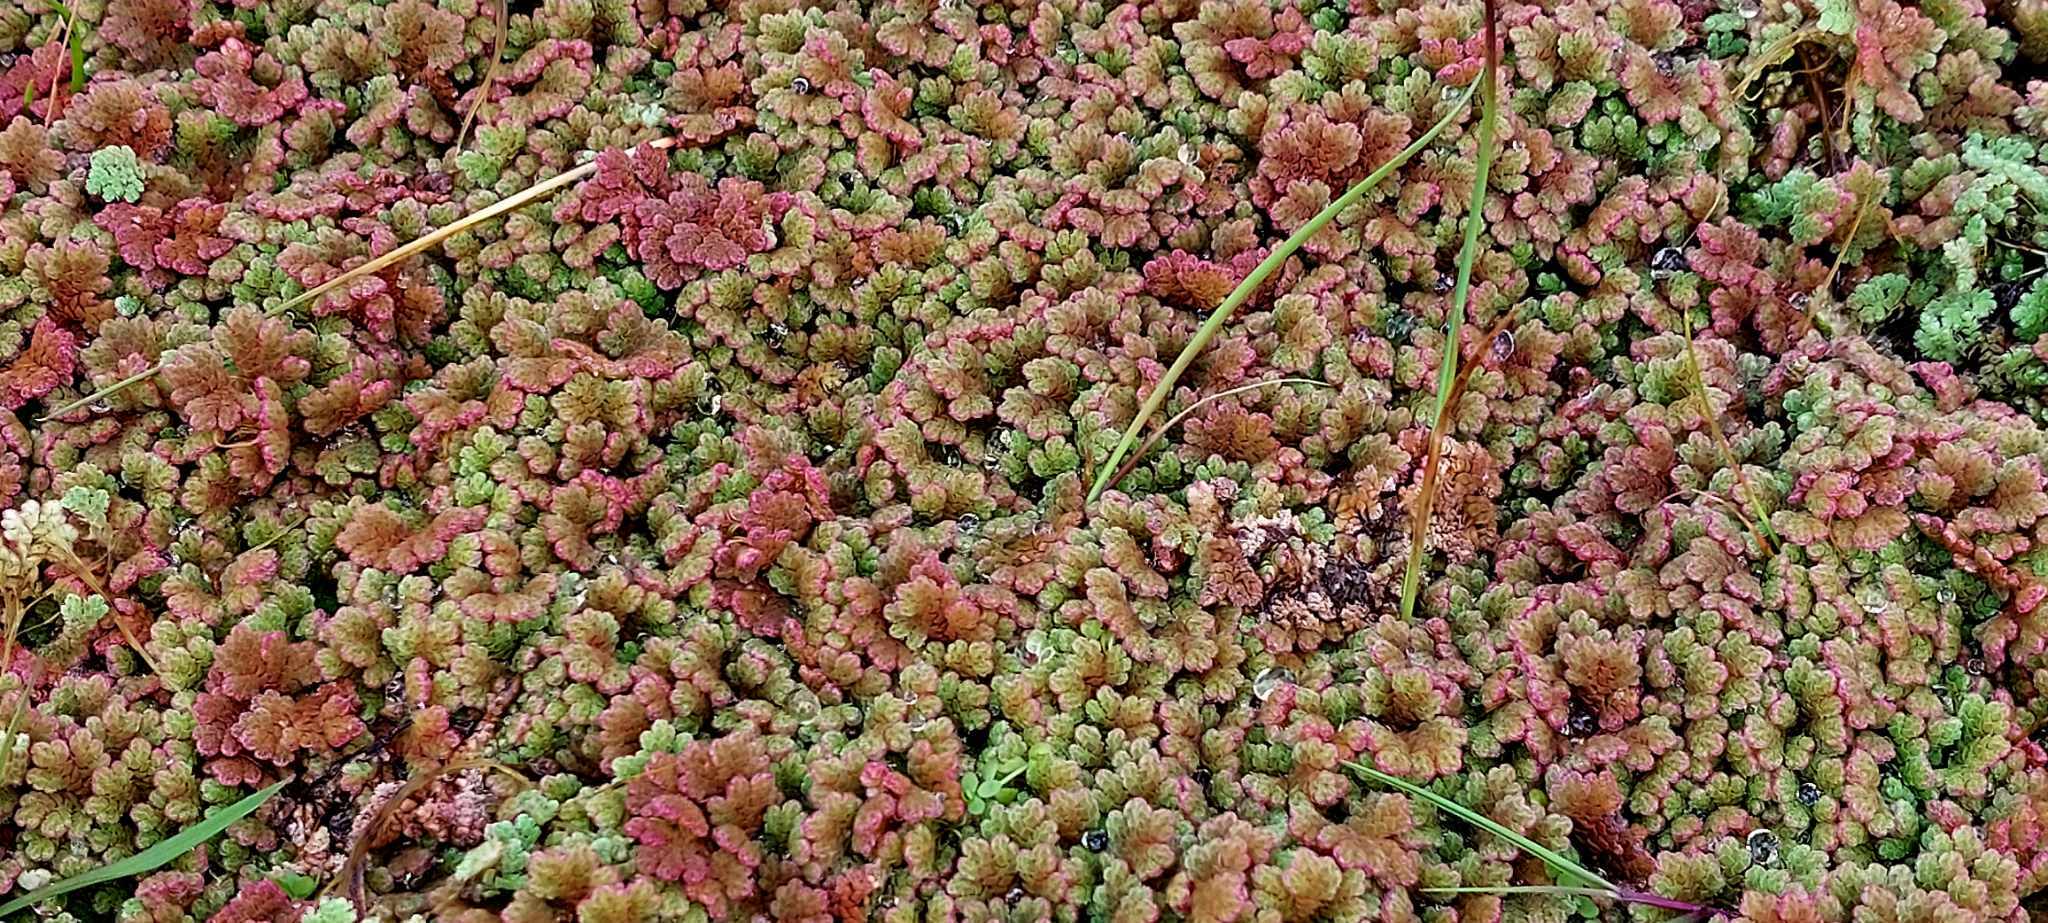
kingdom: Plantae
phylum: Tracheophyta
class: Polypodiopsida
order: Salviniales
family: Salviniaceae
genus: Azolla
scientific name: Azolla rubra
